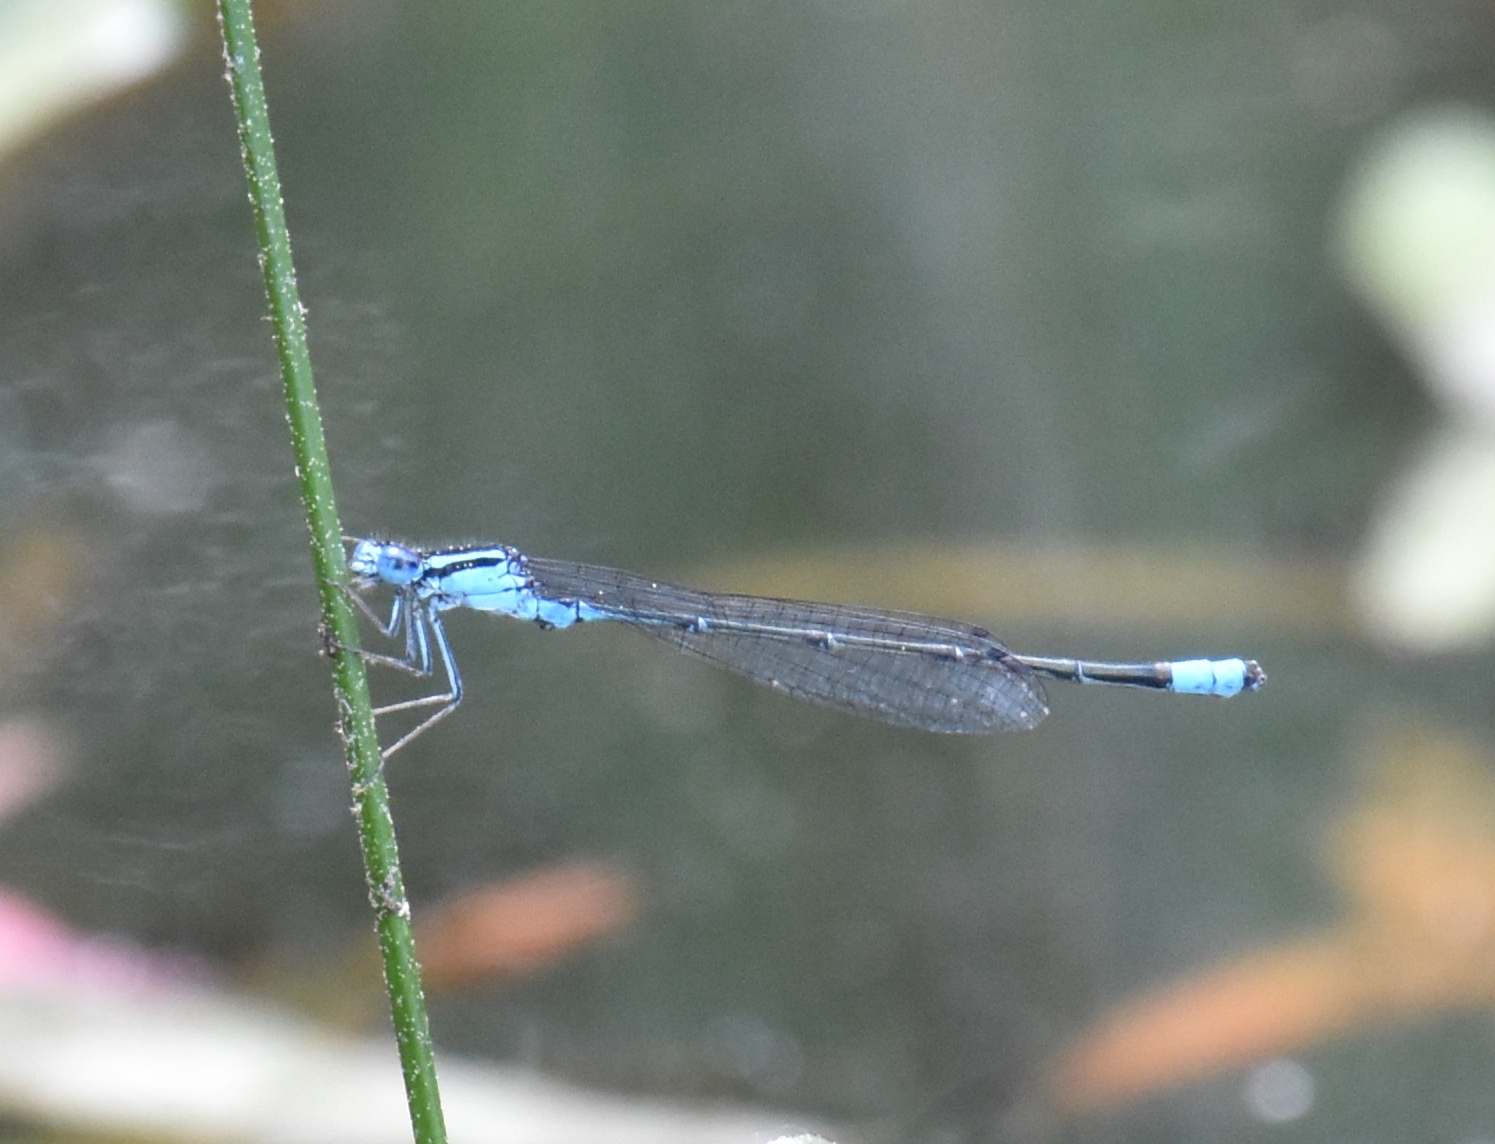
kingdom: Animalia
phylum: Arthropoda
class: Insecta
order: Odonata
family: Coenagrionidae
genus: Enallagma
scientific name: Enallagma divagans
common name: Turquoise bluet
